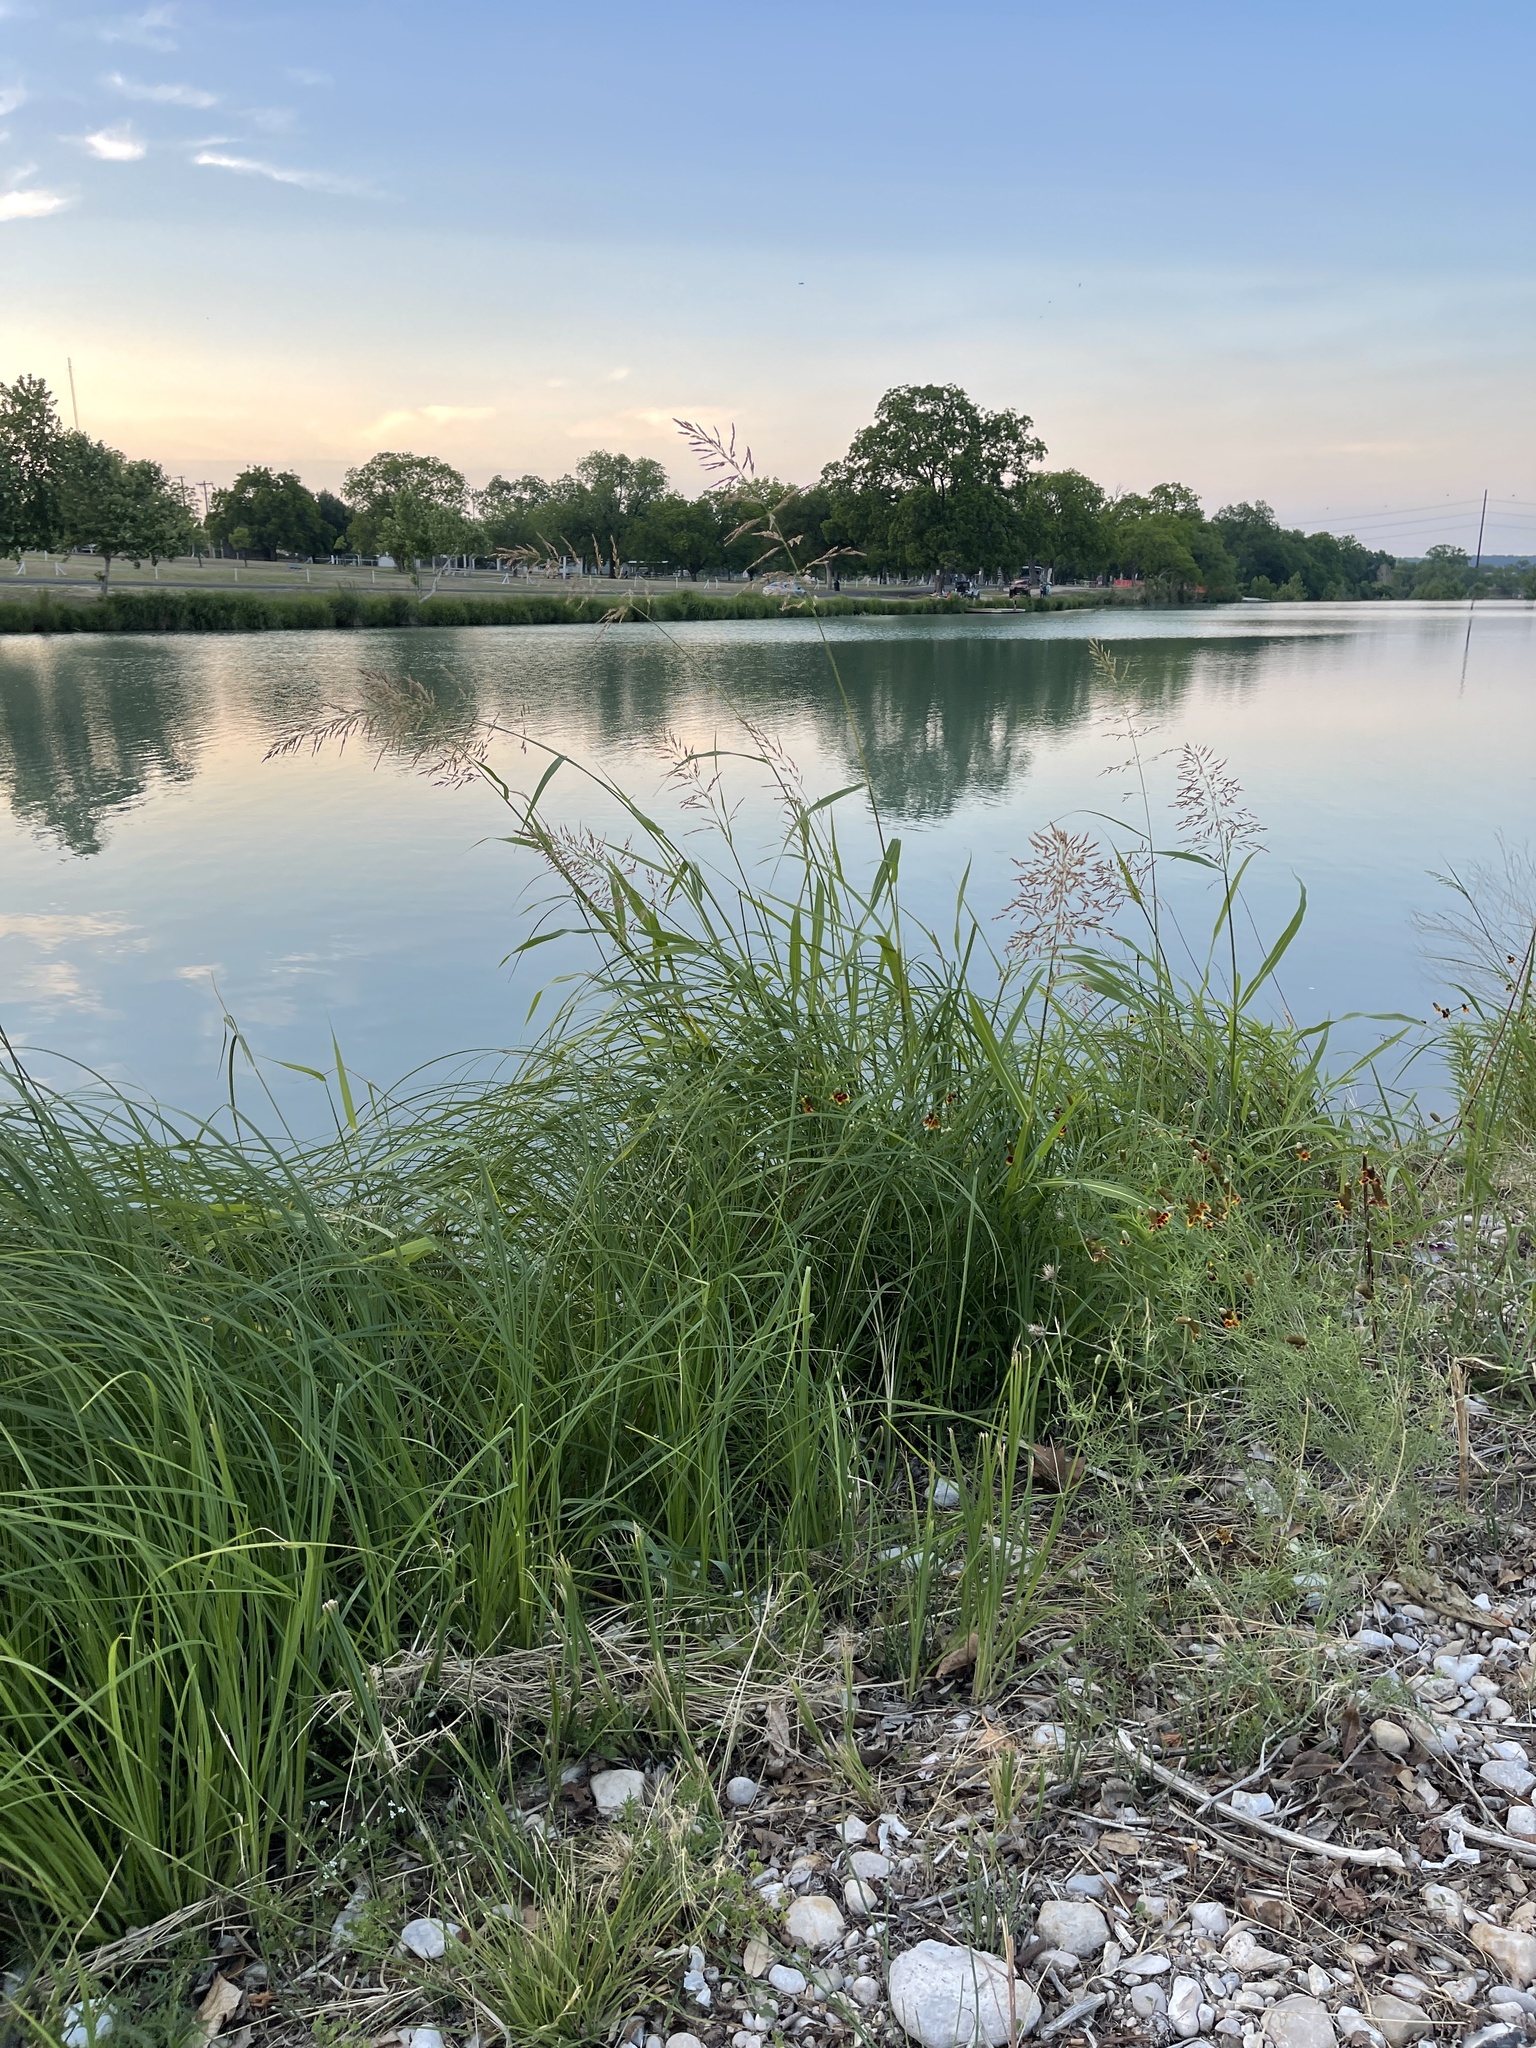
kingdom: Plantae
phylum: Tracheophyta
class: Liliopsida
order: Poales
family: Poaceae
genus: Sorghum
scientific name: Sorghum halepense
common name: Johnson-grass
